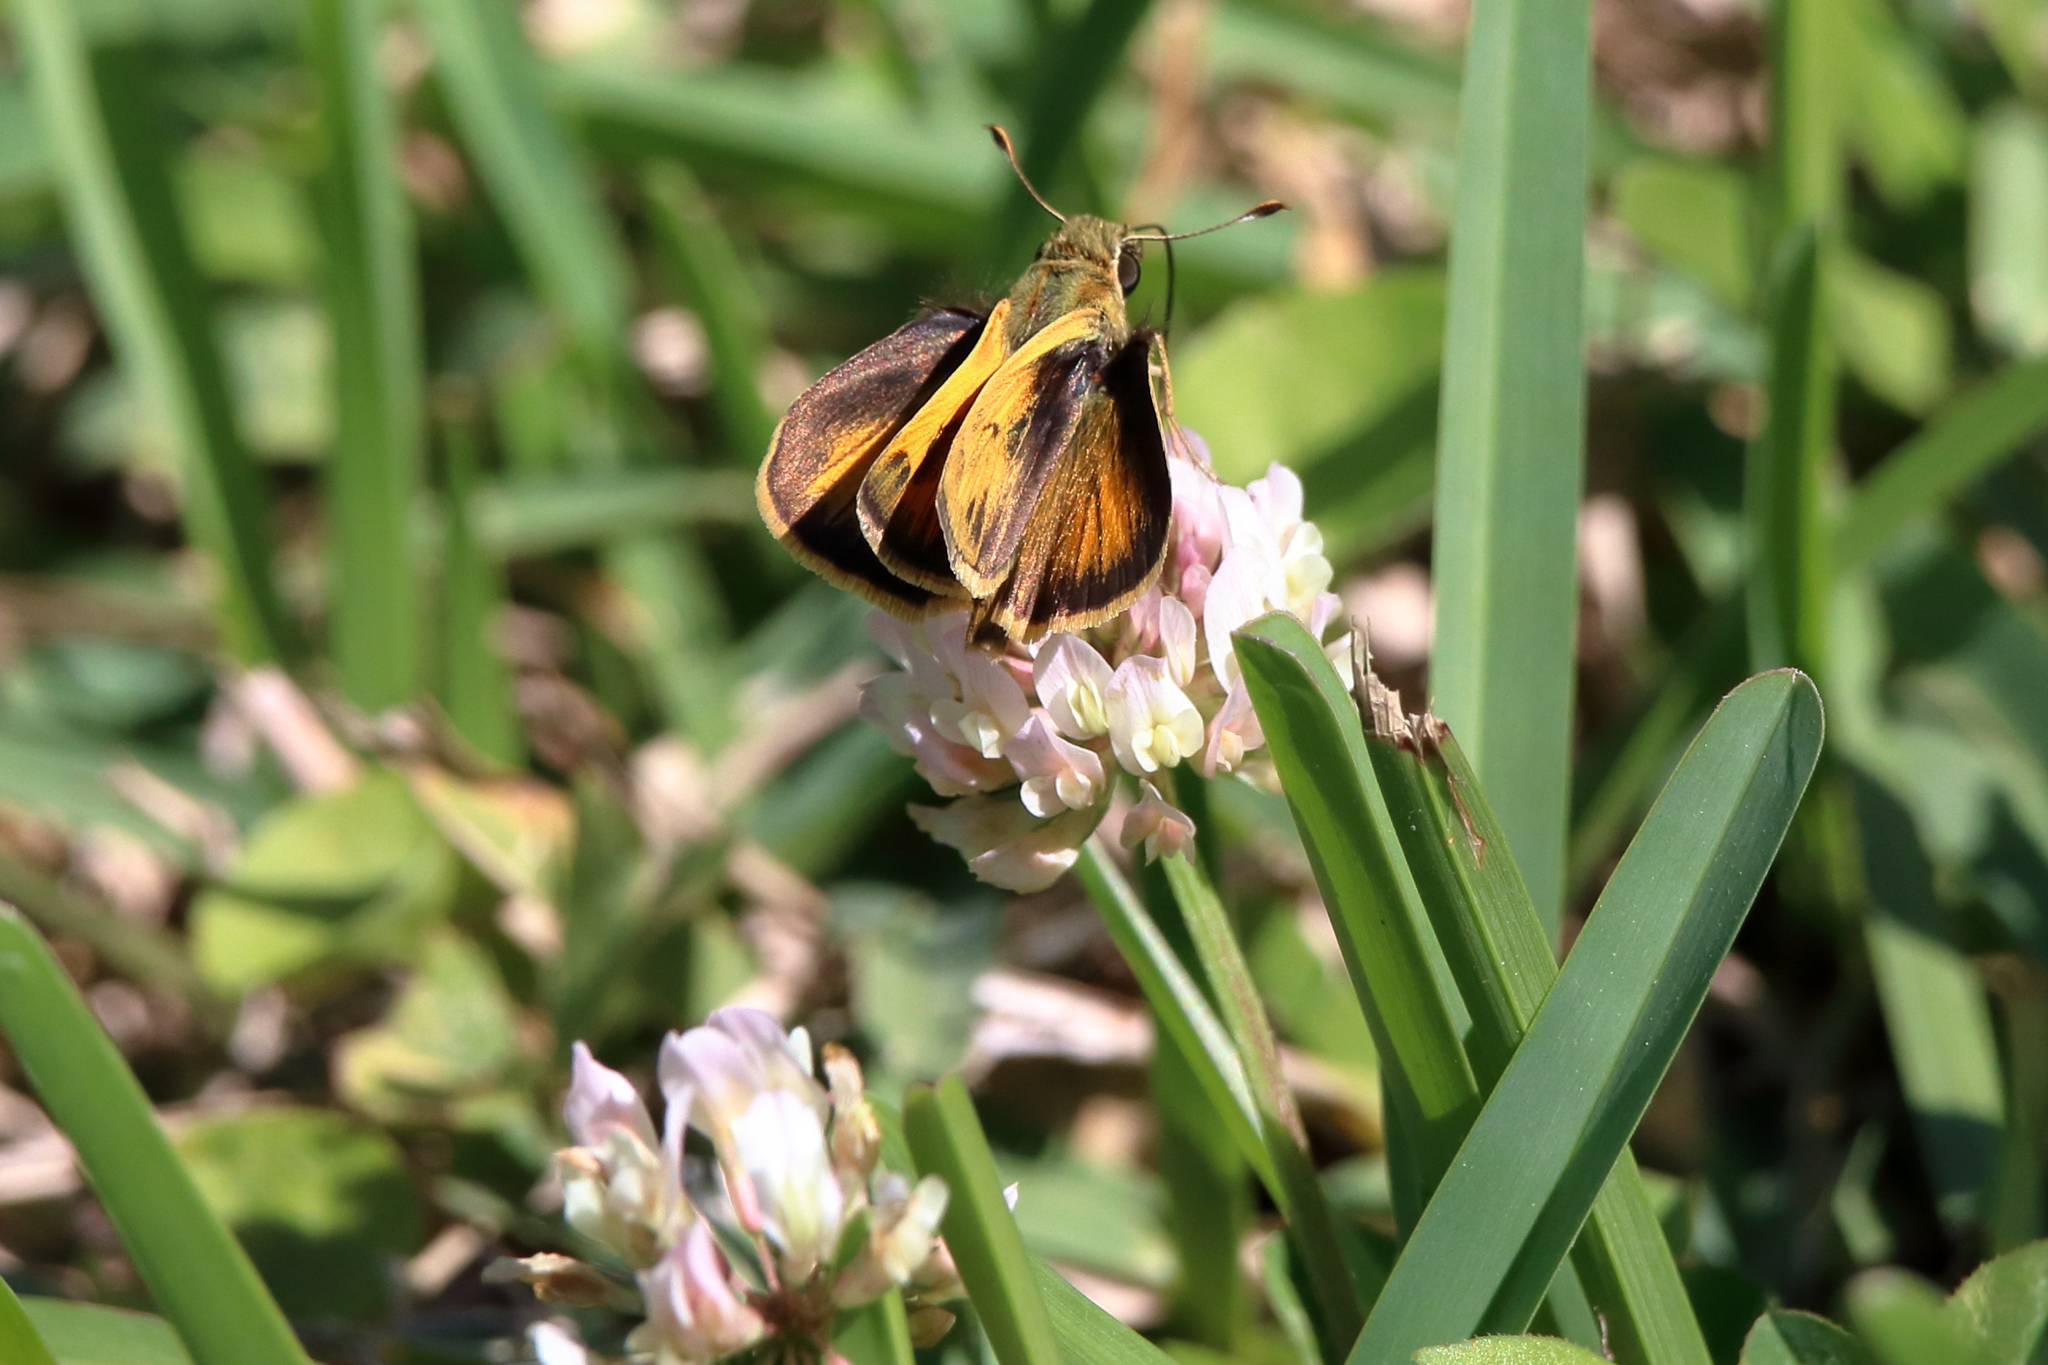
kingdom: Animalia
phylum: Arthropoda
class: Insecta
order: Lepidoptera
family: Hesperiidae
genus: Polites
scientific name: Polites vibex
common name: Whirlabout
